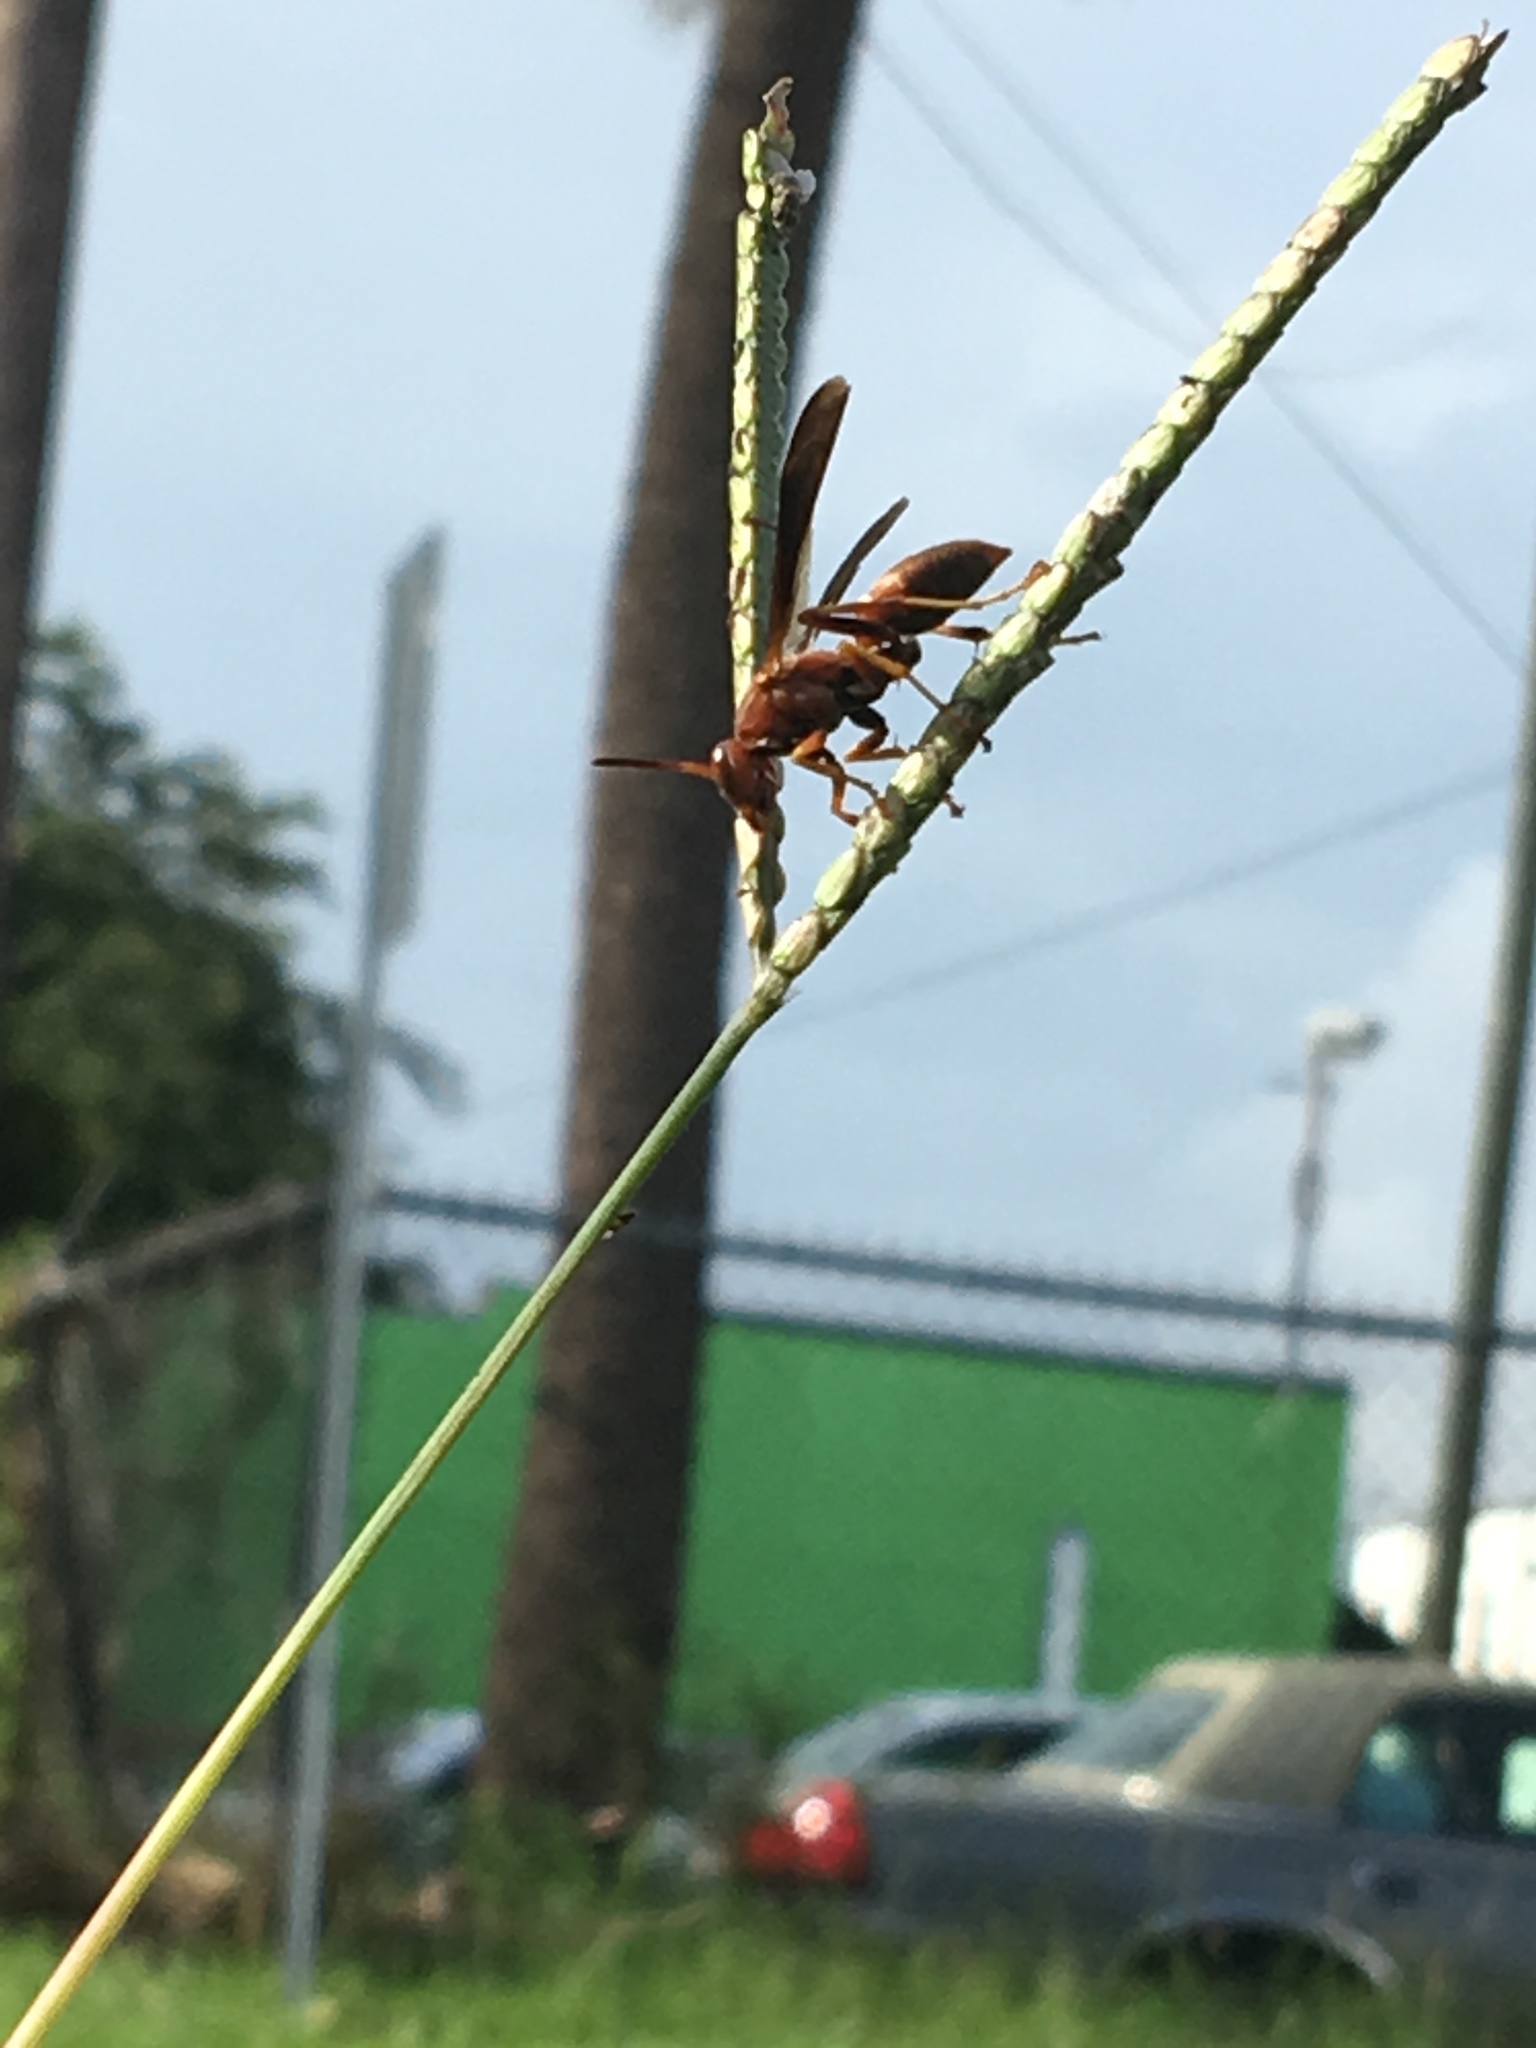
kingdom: Animalia
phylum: Arthropoda
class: Insecta
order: Hymenoptera
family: Eumenidae
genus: Polistes
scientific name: Polistes fuscatus
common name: Dark paper wasp
